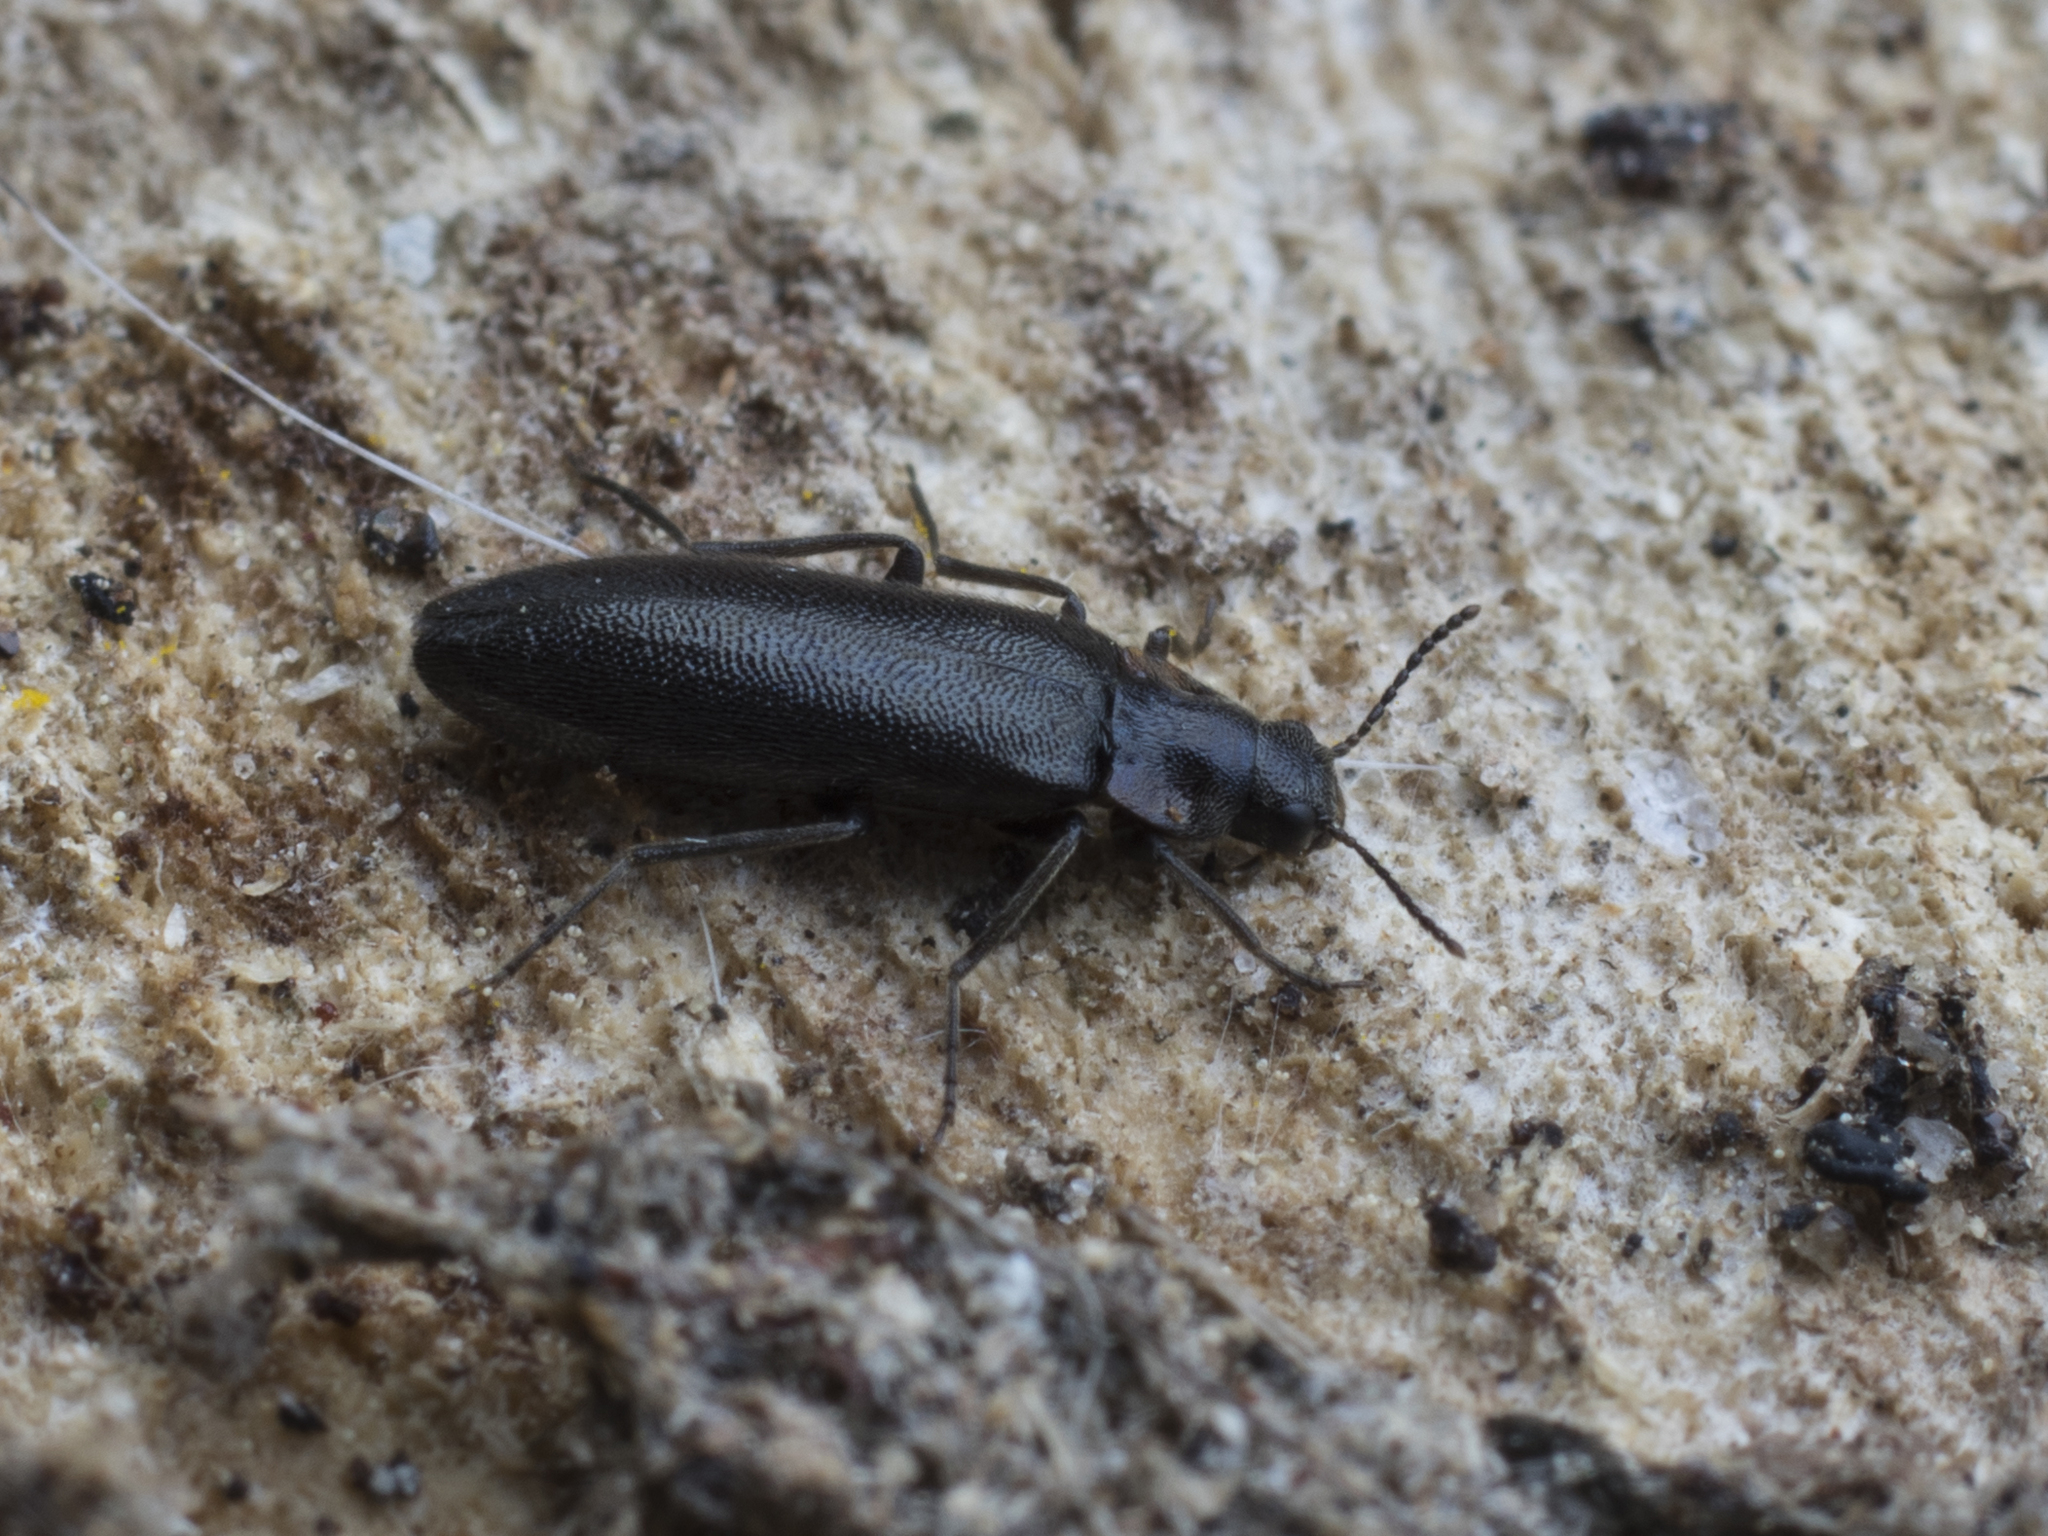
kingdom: Animalia
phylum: Arthropoda
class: Insecta
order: Coleoptera
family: Melandryidae
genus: Phryganophilus
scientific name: Phryganophilus auritus
